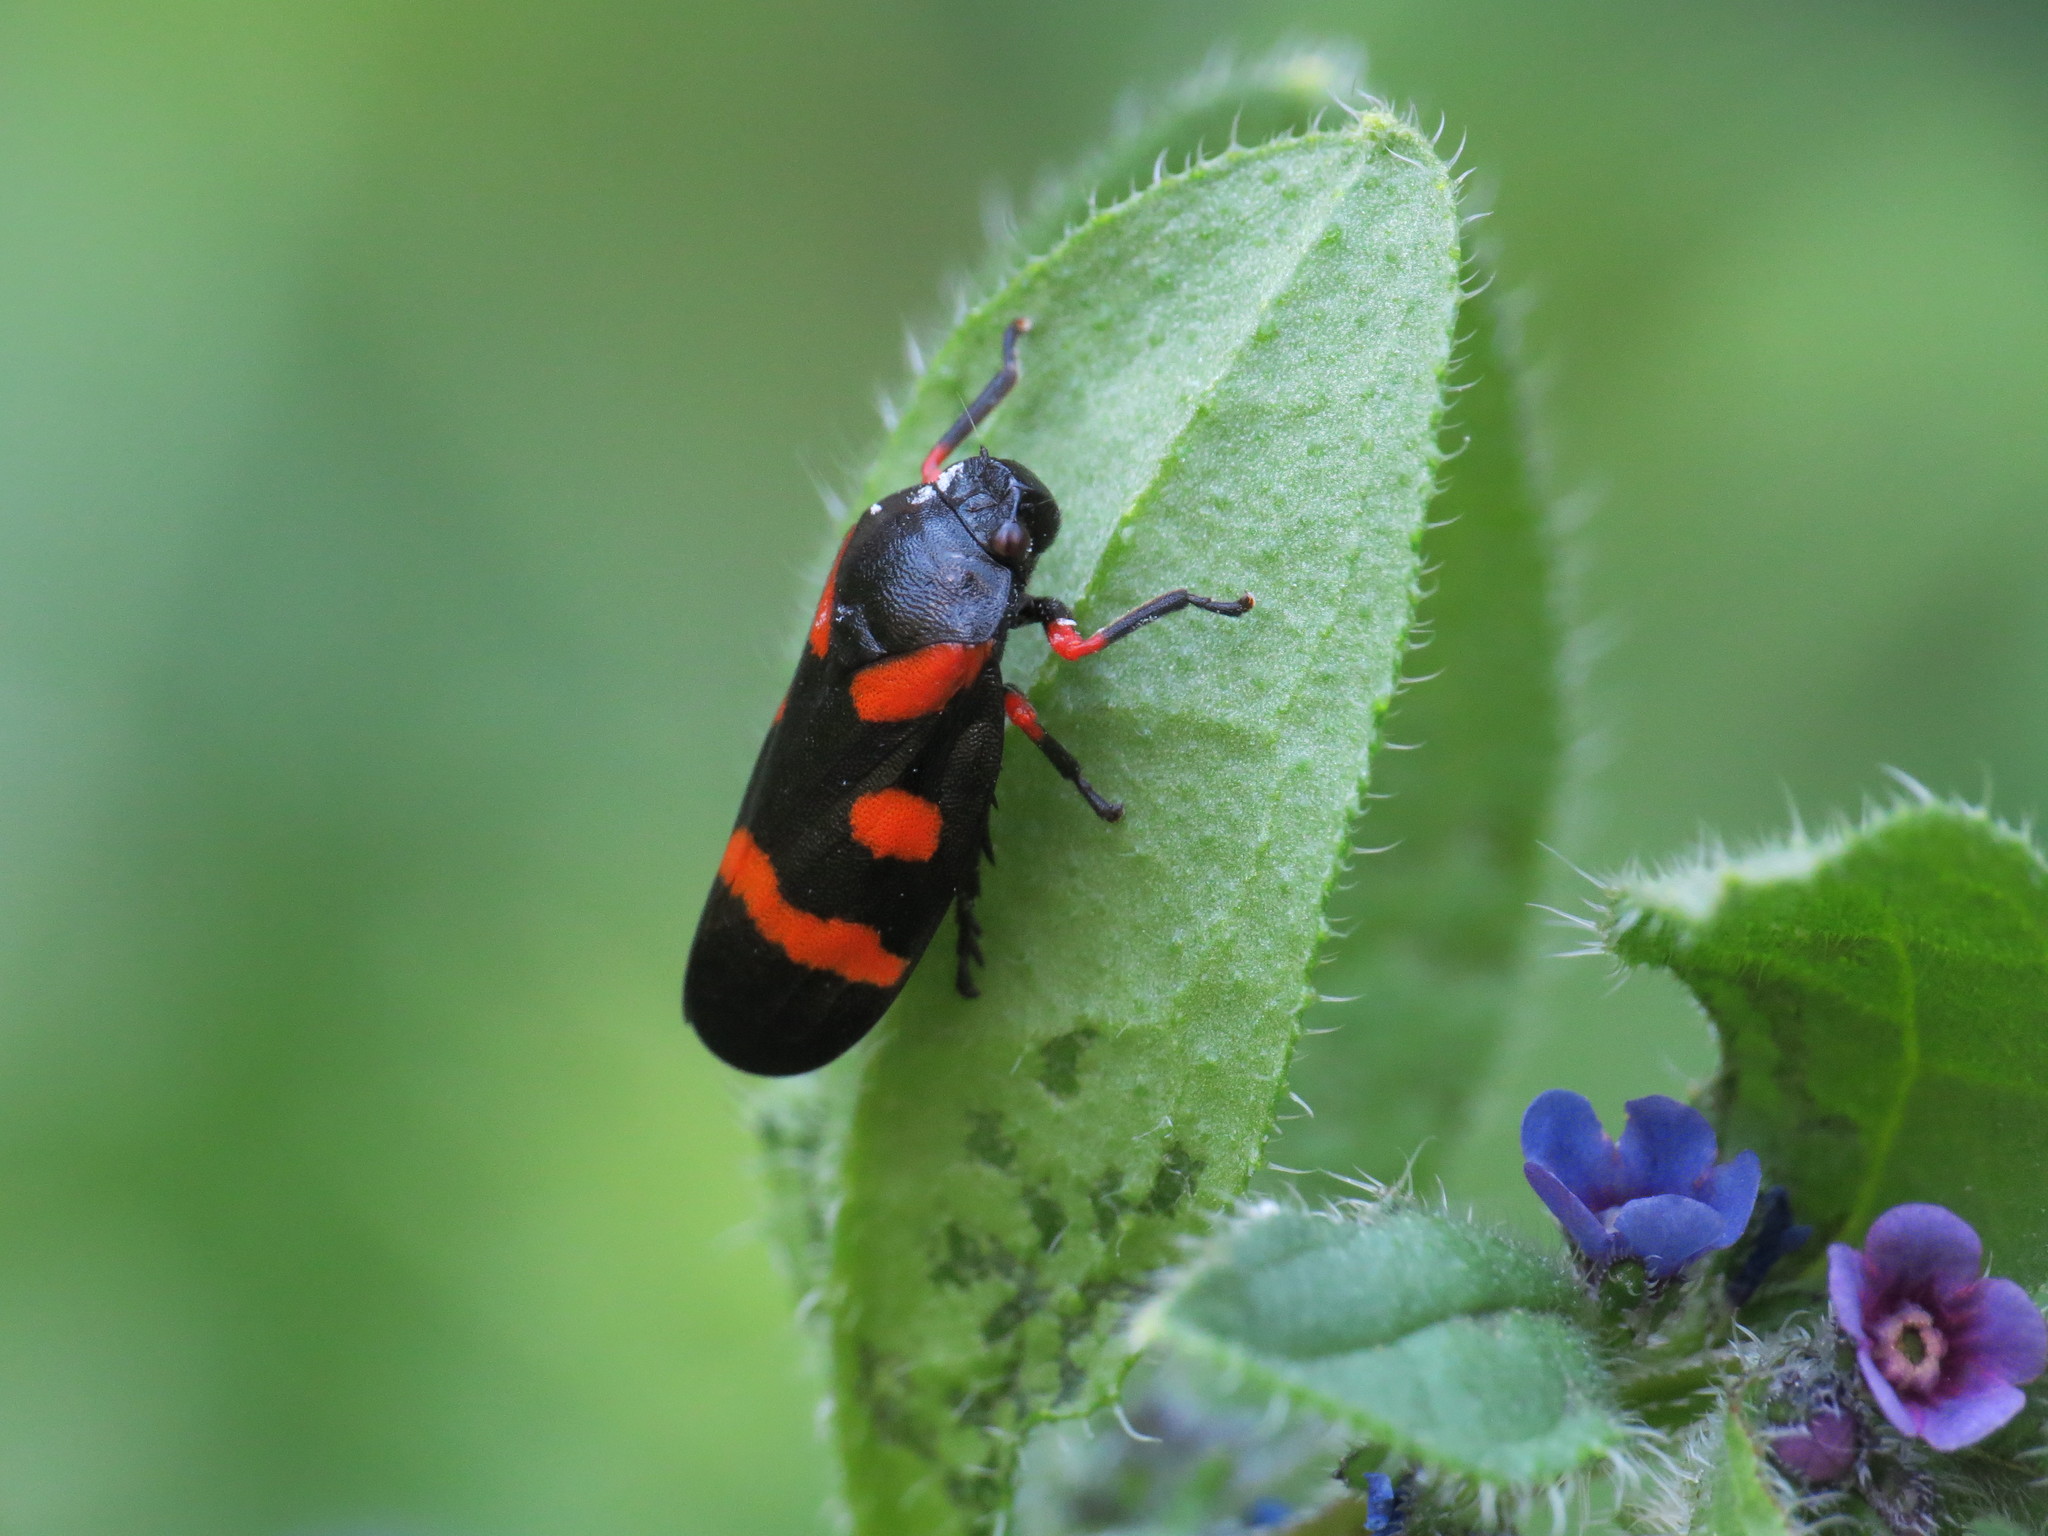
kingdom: Animalia
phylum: Arthropoda
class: Insecta
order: Hemiptera
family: Cercopidae
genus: Cercopis
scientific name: Cercopis intermedia
